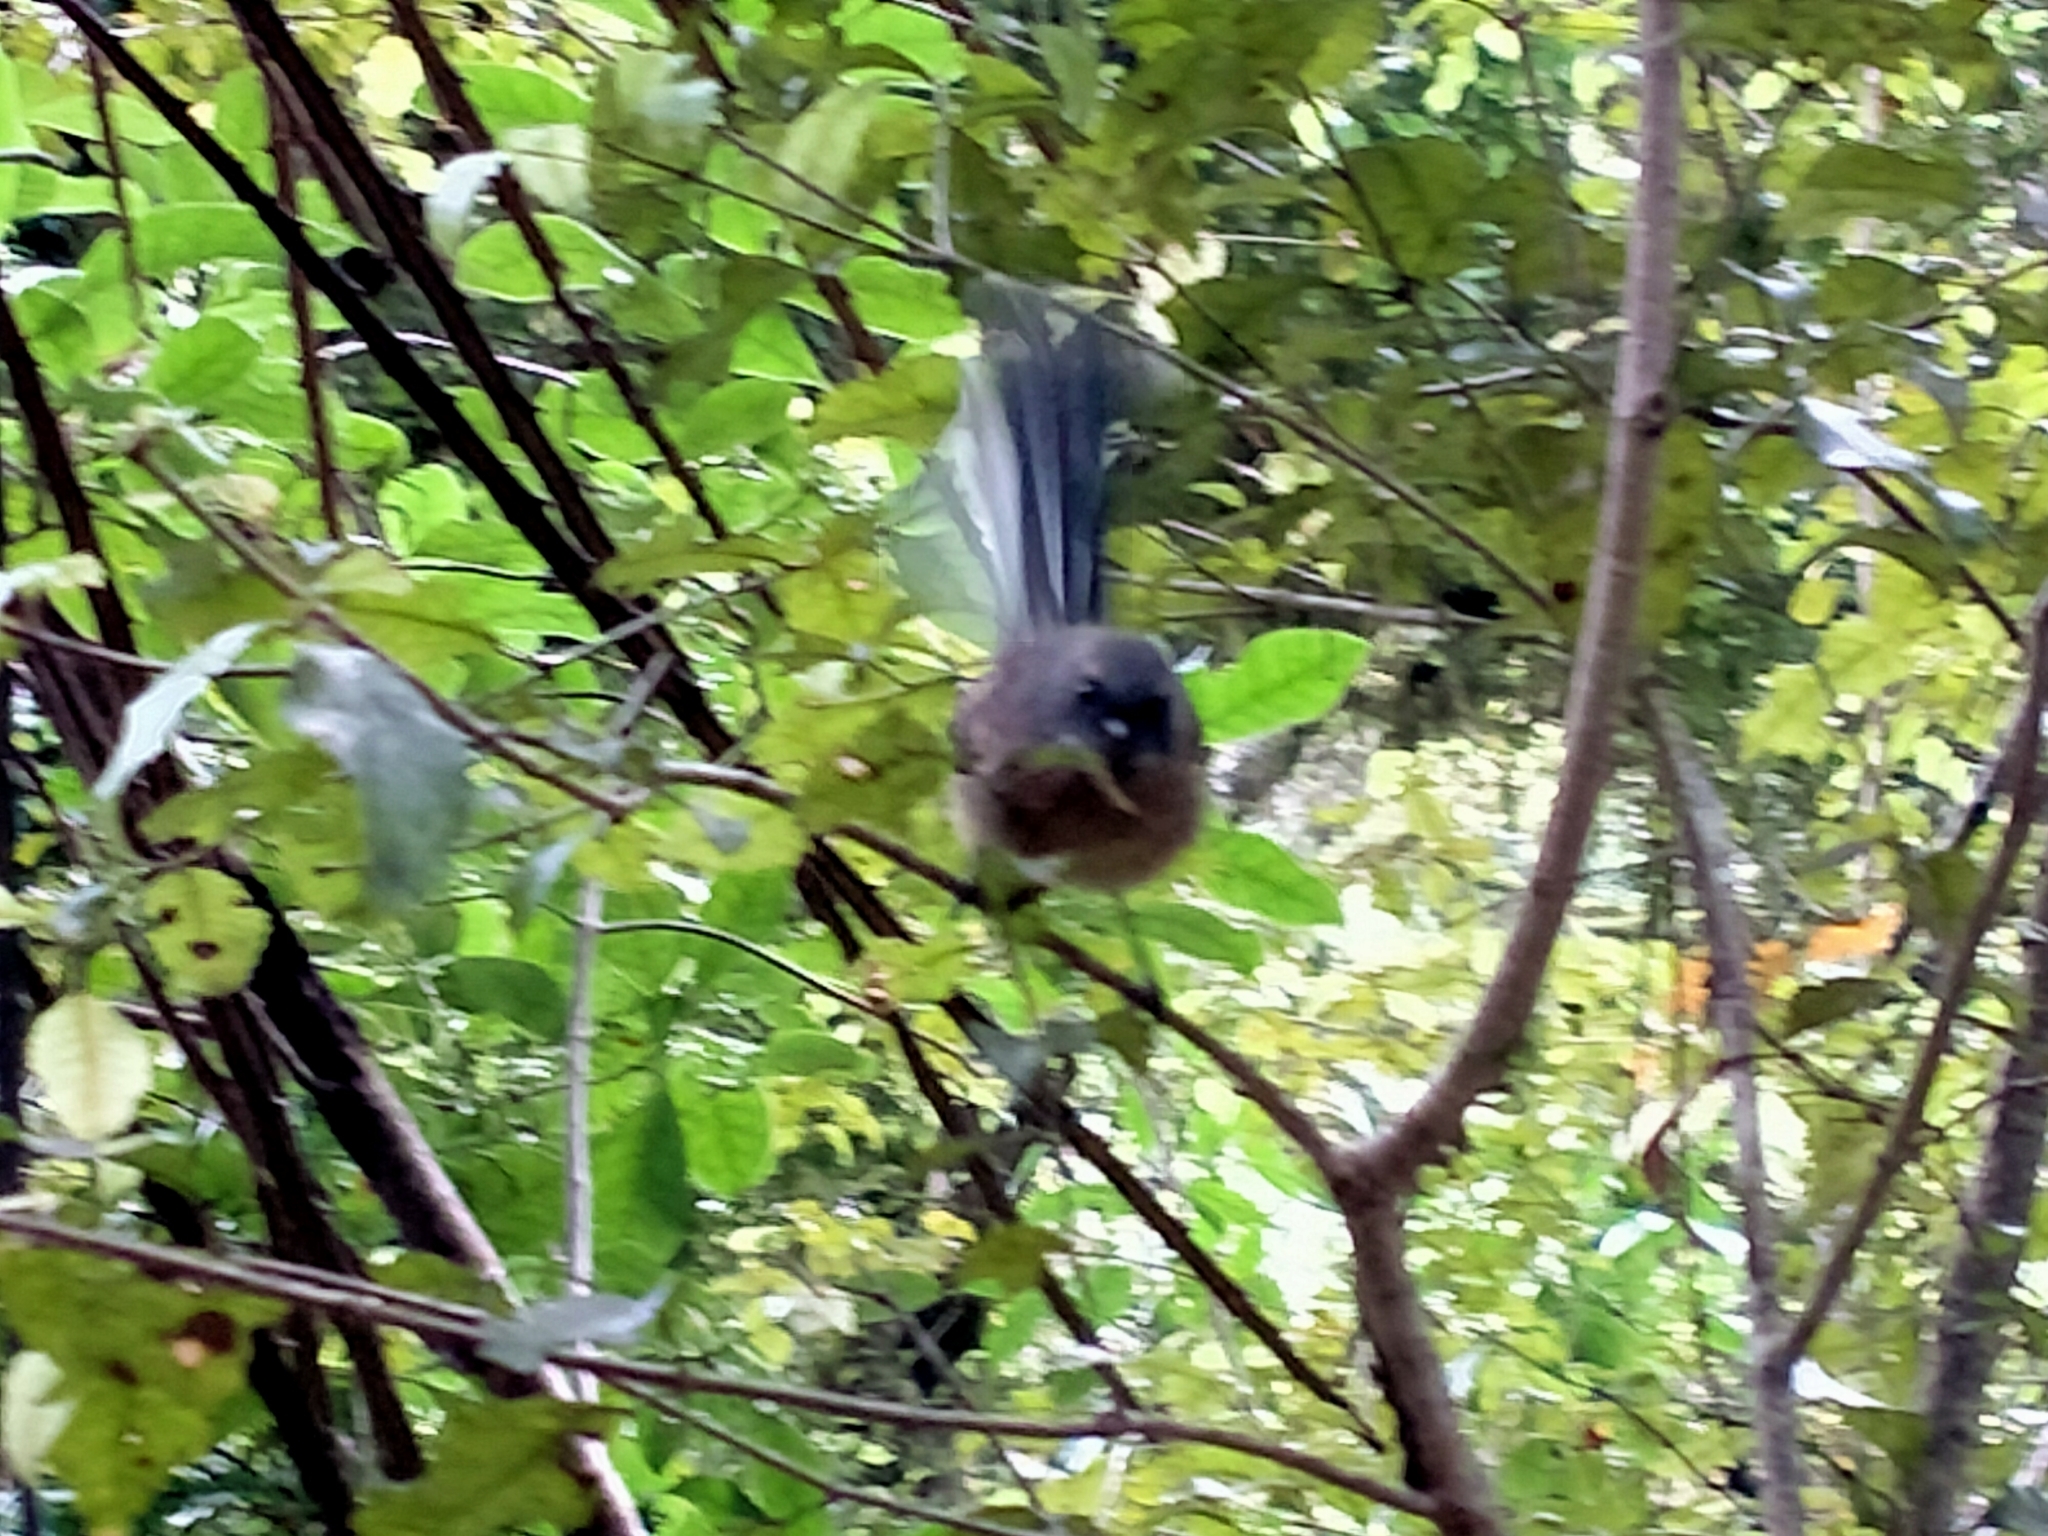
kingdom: Animalia
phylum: Chordata
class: Aves
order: Passeriformes
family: Rhipiduridae
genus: Rhipidura
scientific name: Rhipidura fuliginosa
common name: New zealand fantail
